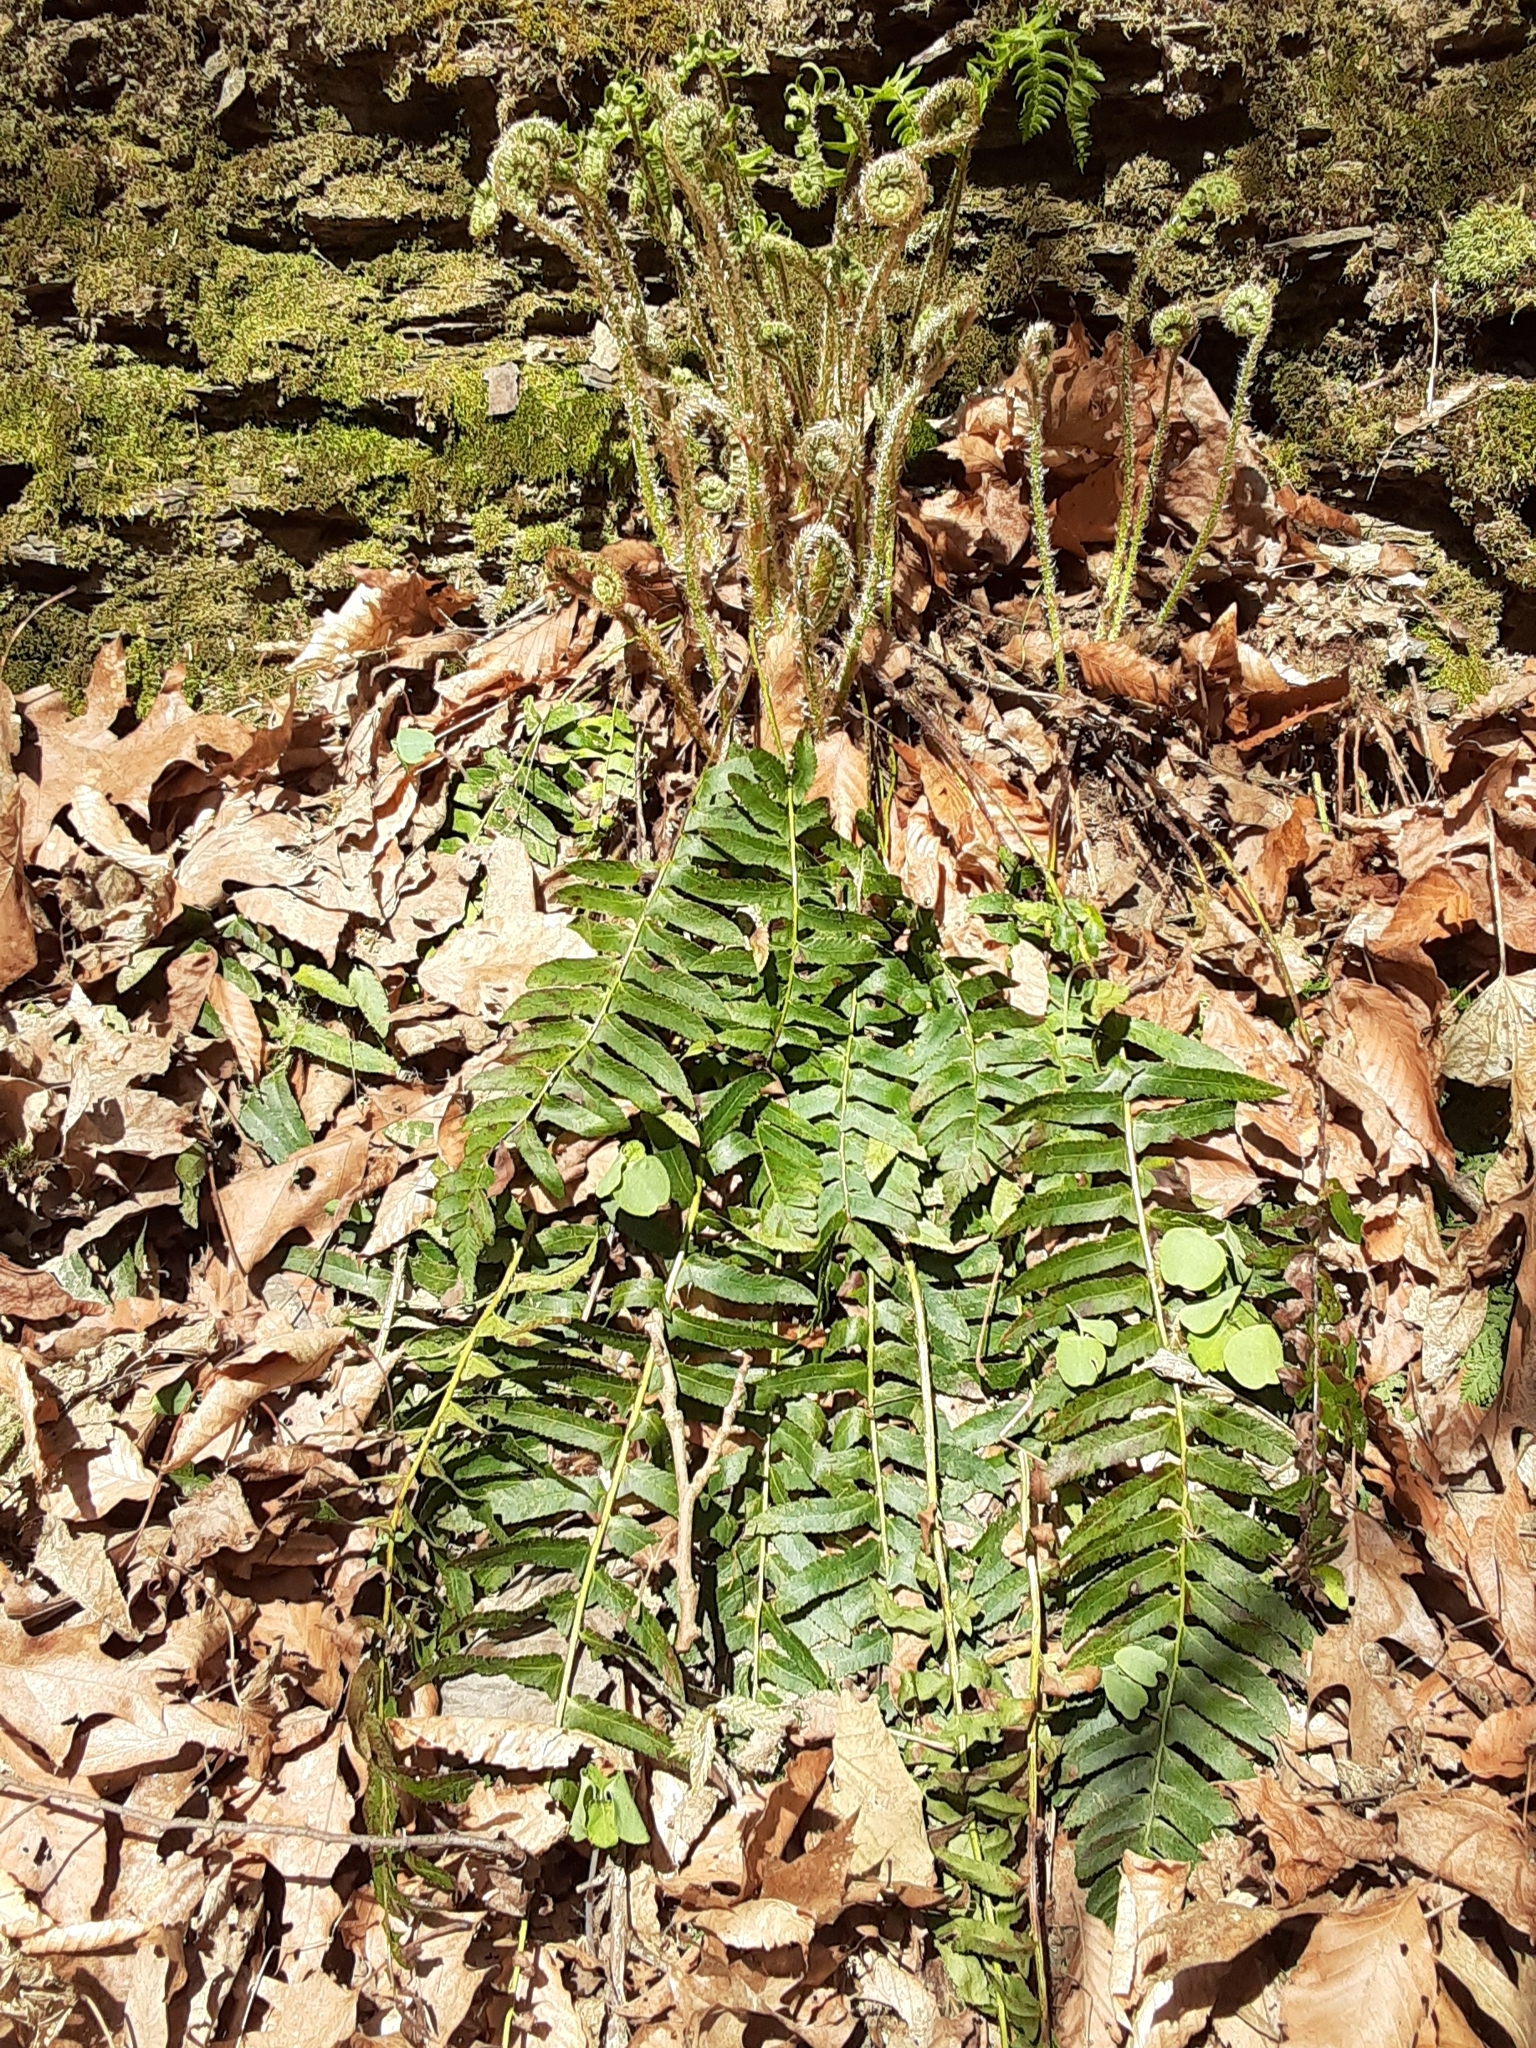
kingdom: Plantae
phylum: Tracheophyta
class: Polypodiopsida
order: Polypodiales
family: Dryopteridaceae
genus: Polystichum
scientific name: Polystichum acrostichoides
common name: Christmas fern
